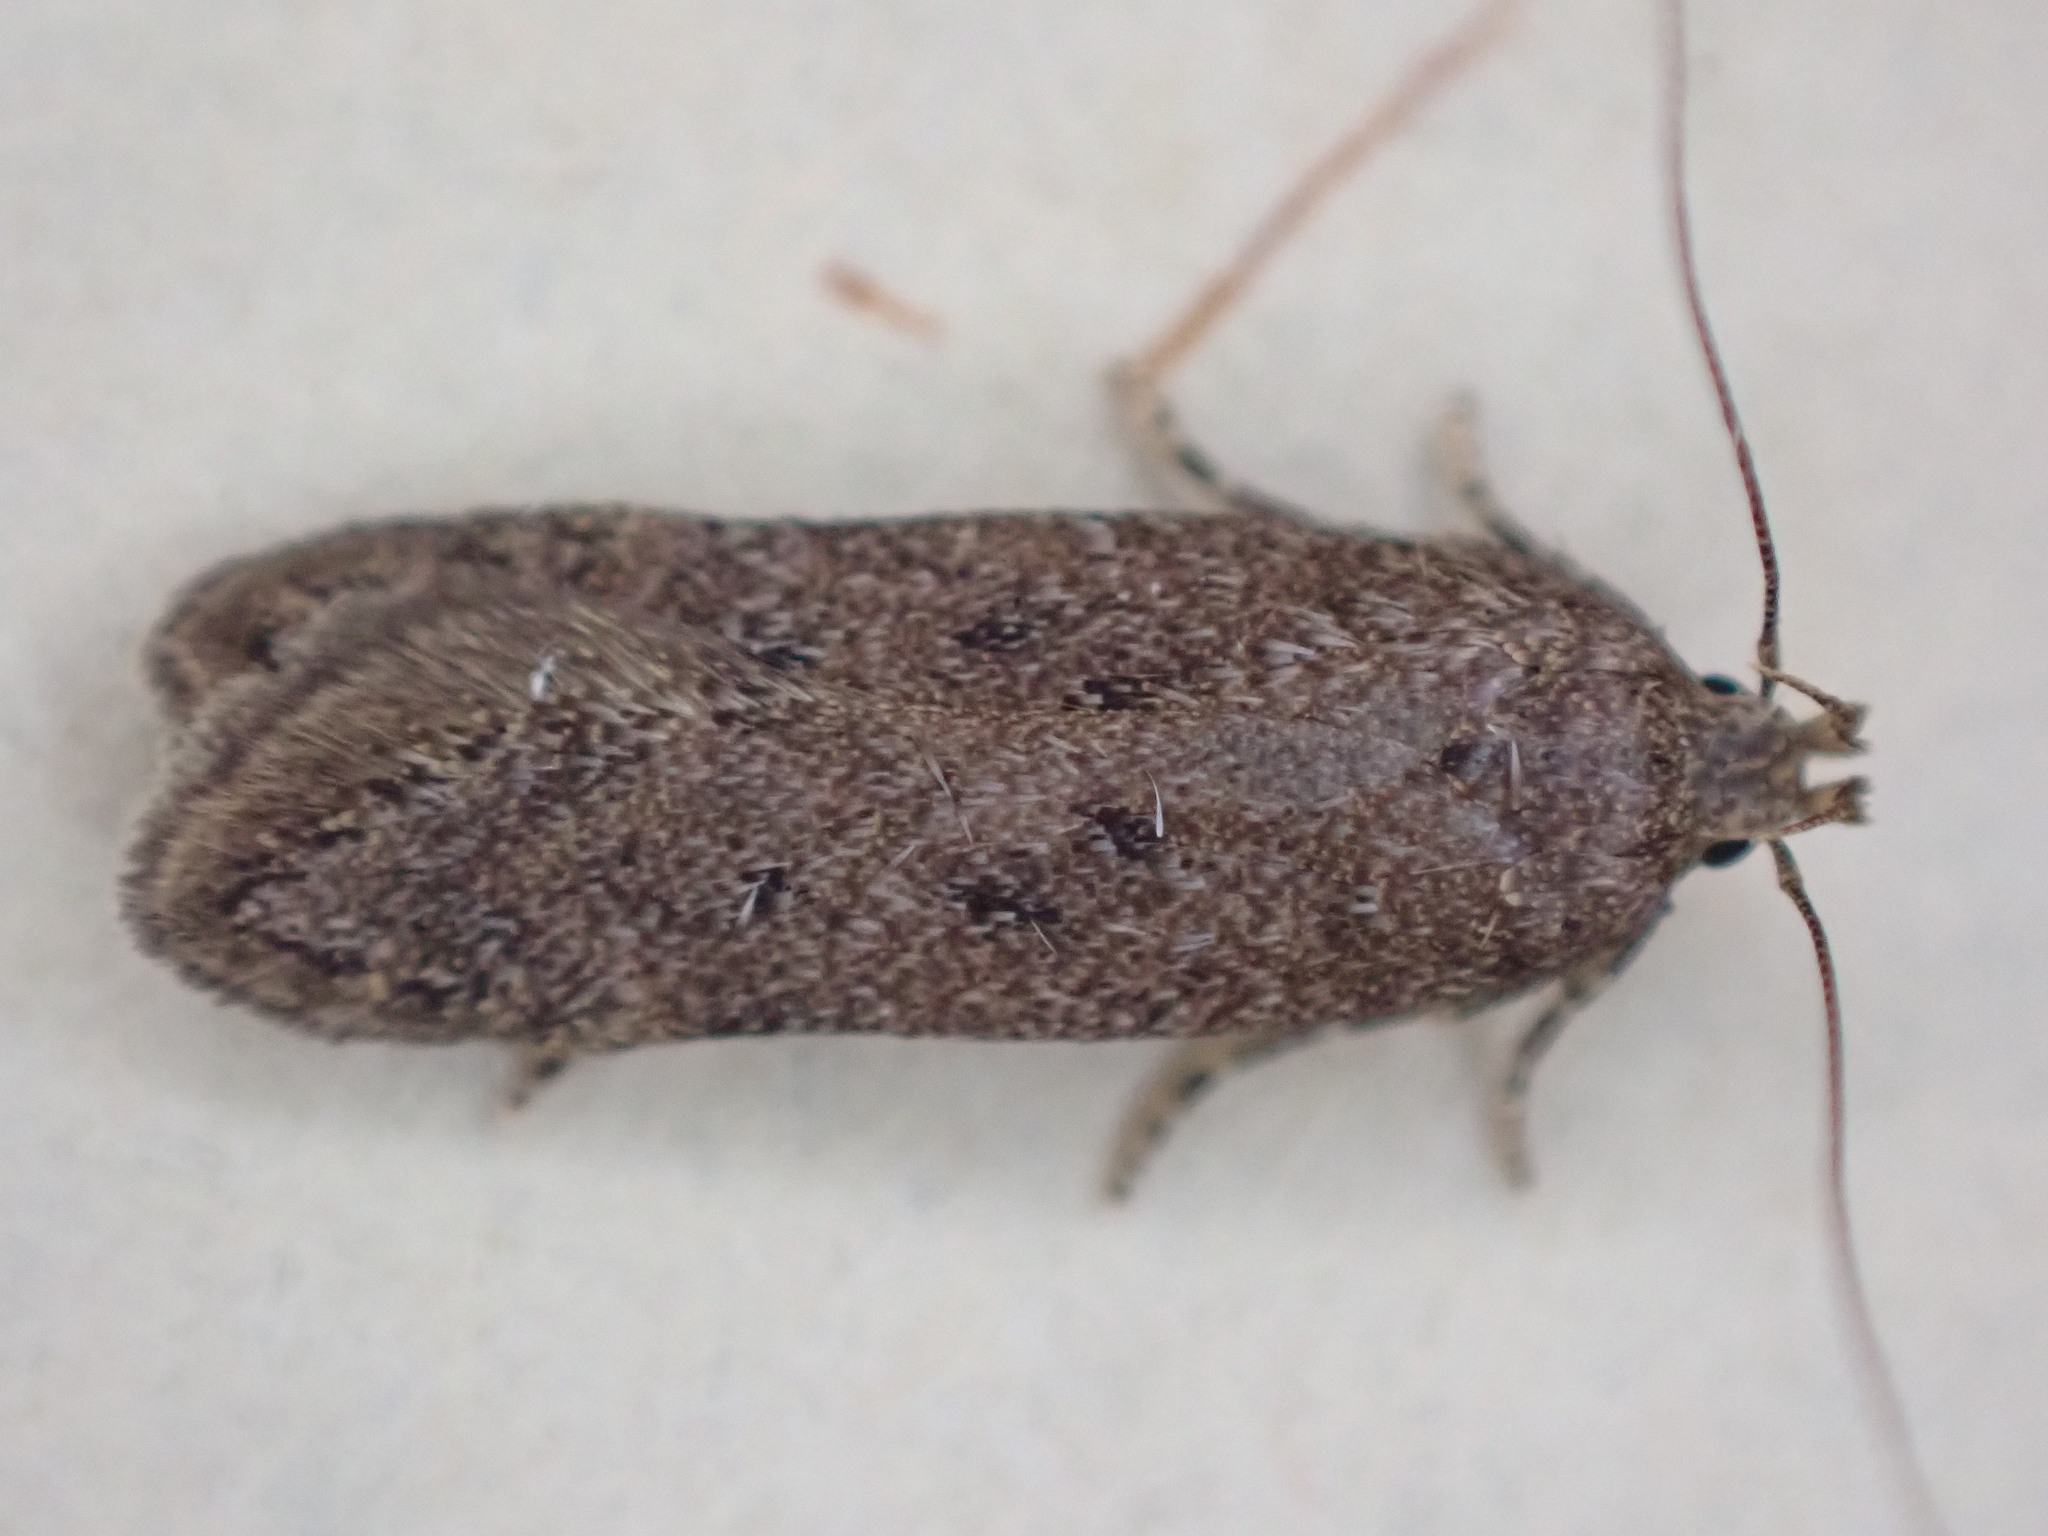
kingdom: Animalia
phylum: Arthropoda
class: Insecta
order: Lepidoptera
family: Gelechiidae
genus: Bryotropha
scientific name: Bryotropha terrella
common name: Cinerous groundling
